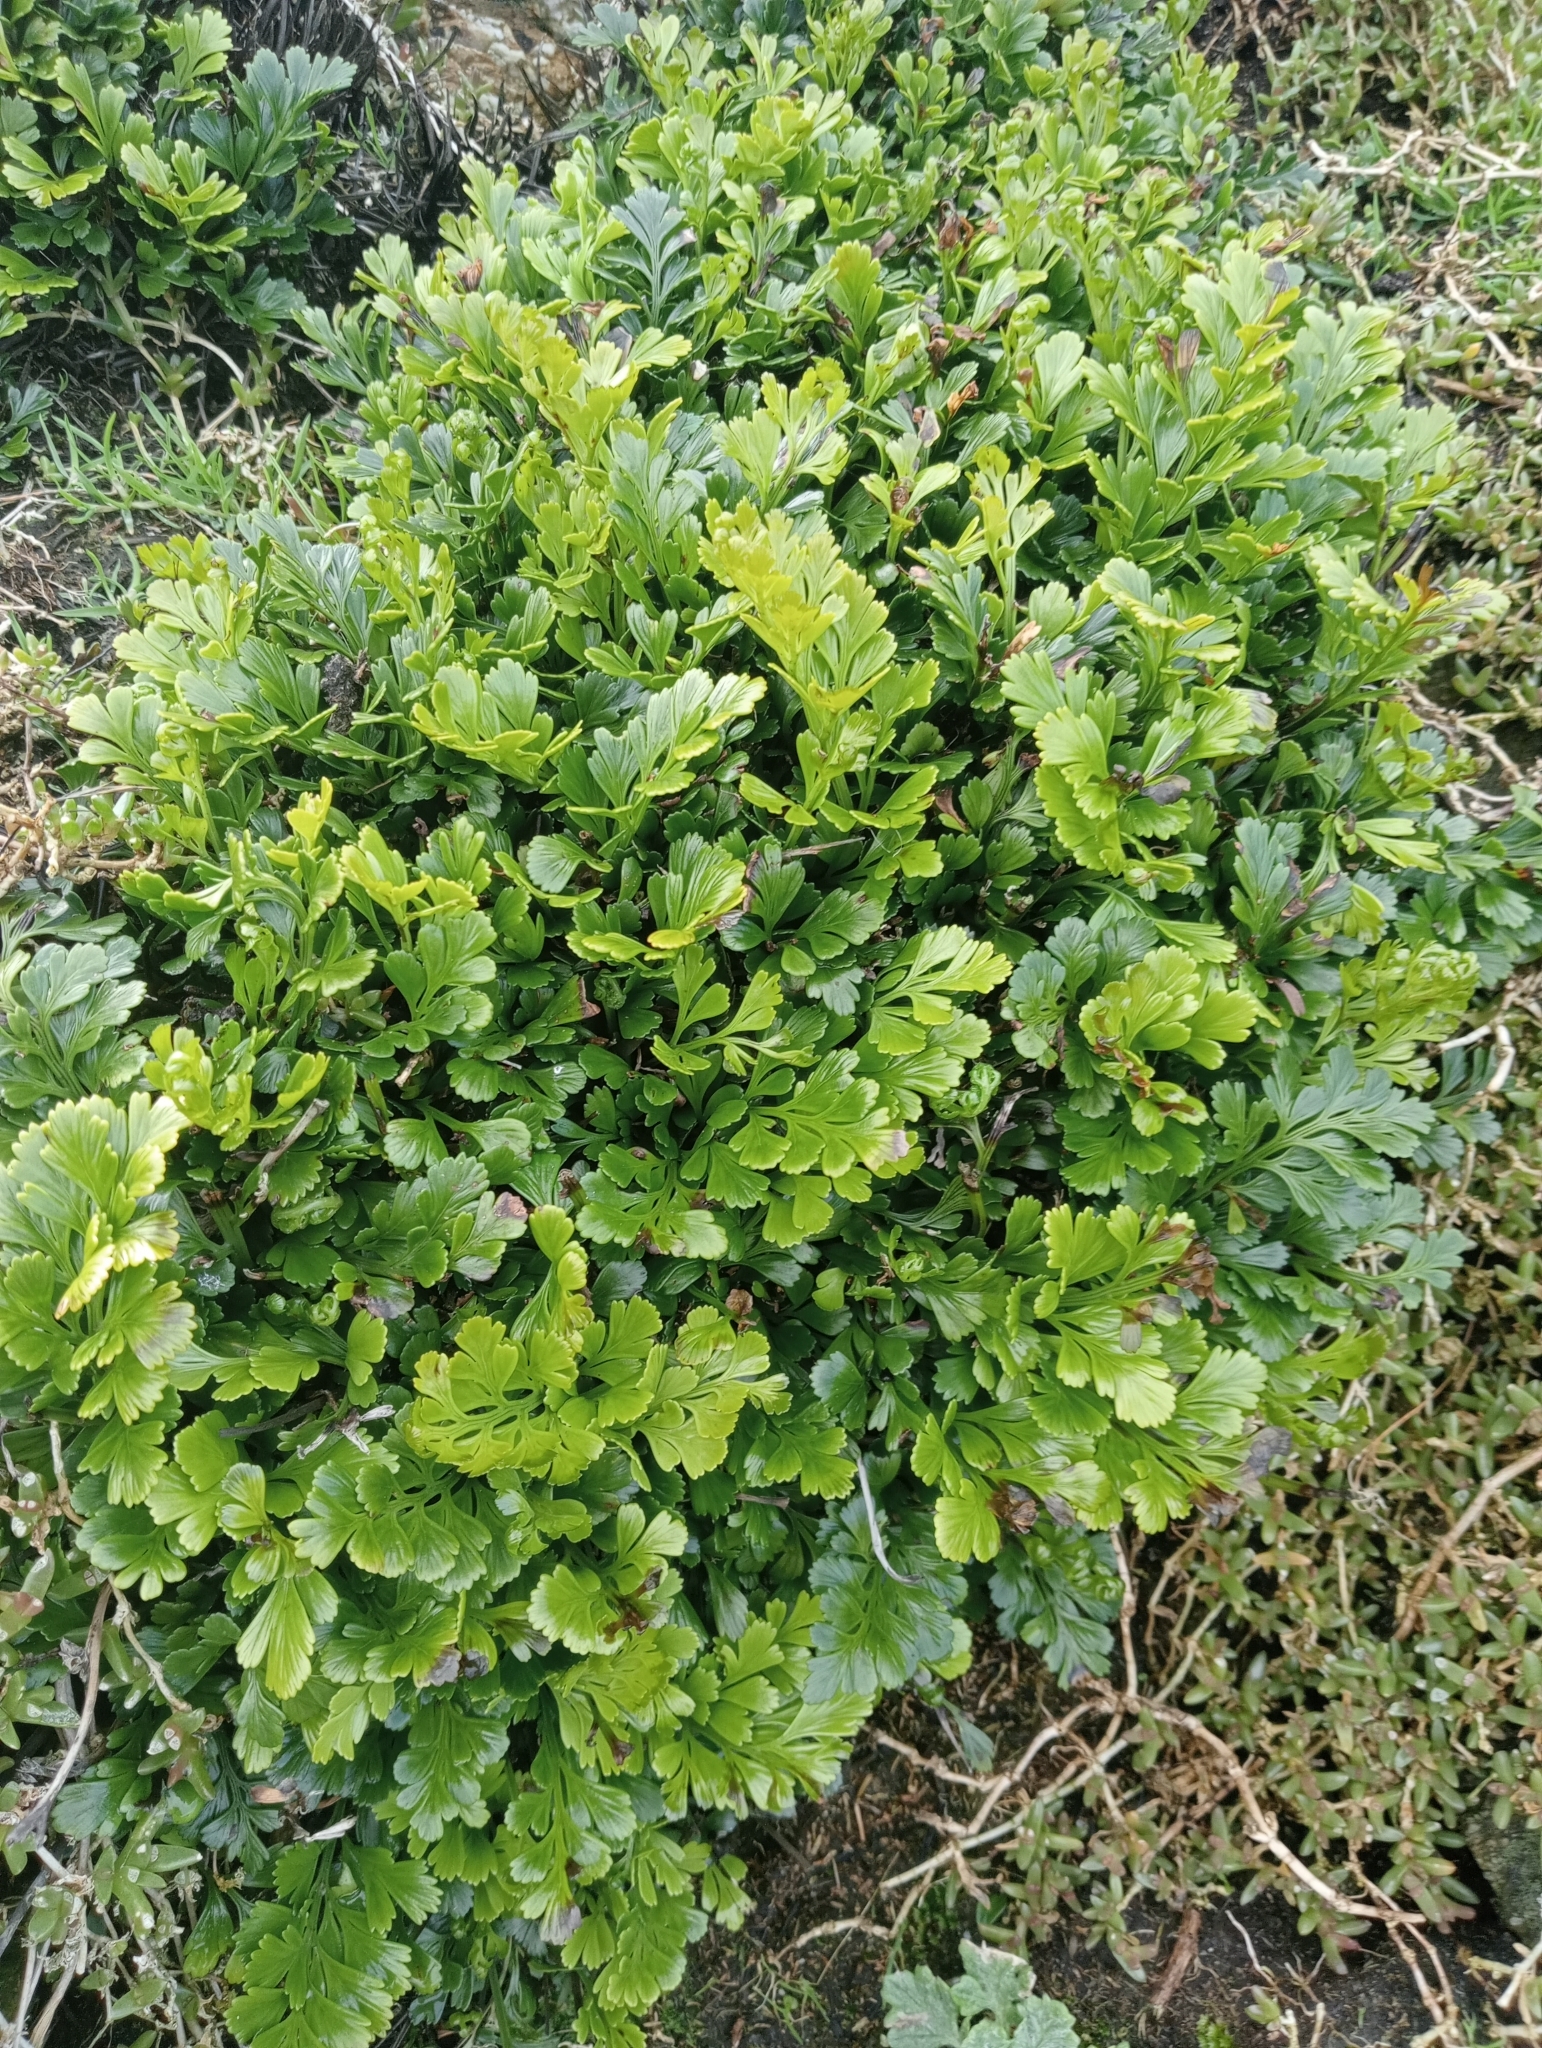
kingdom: Plantae
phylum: Tracheophyta
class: Polypodiopsida
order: Polypodiales
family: Aspleniaceae
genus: Asplenium
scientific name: Asplenium chathamense
